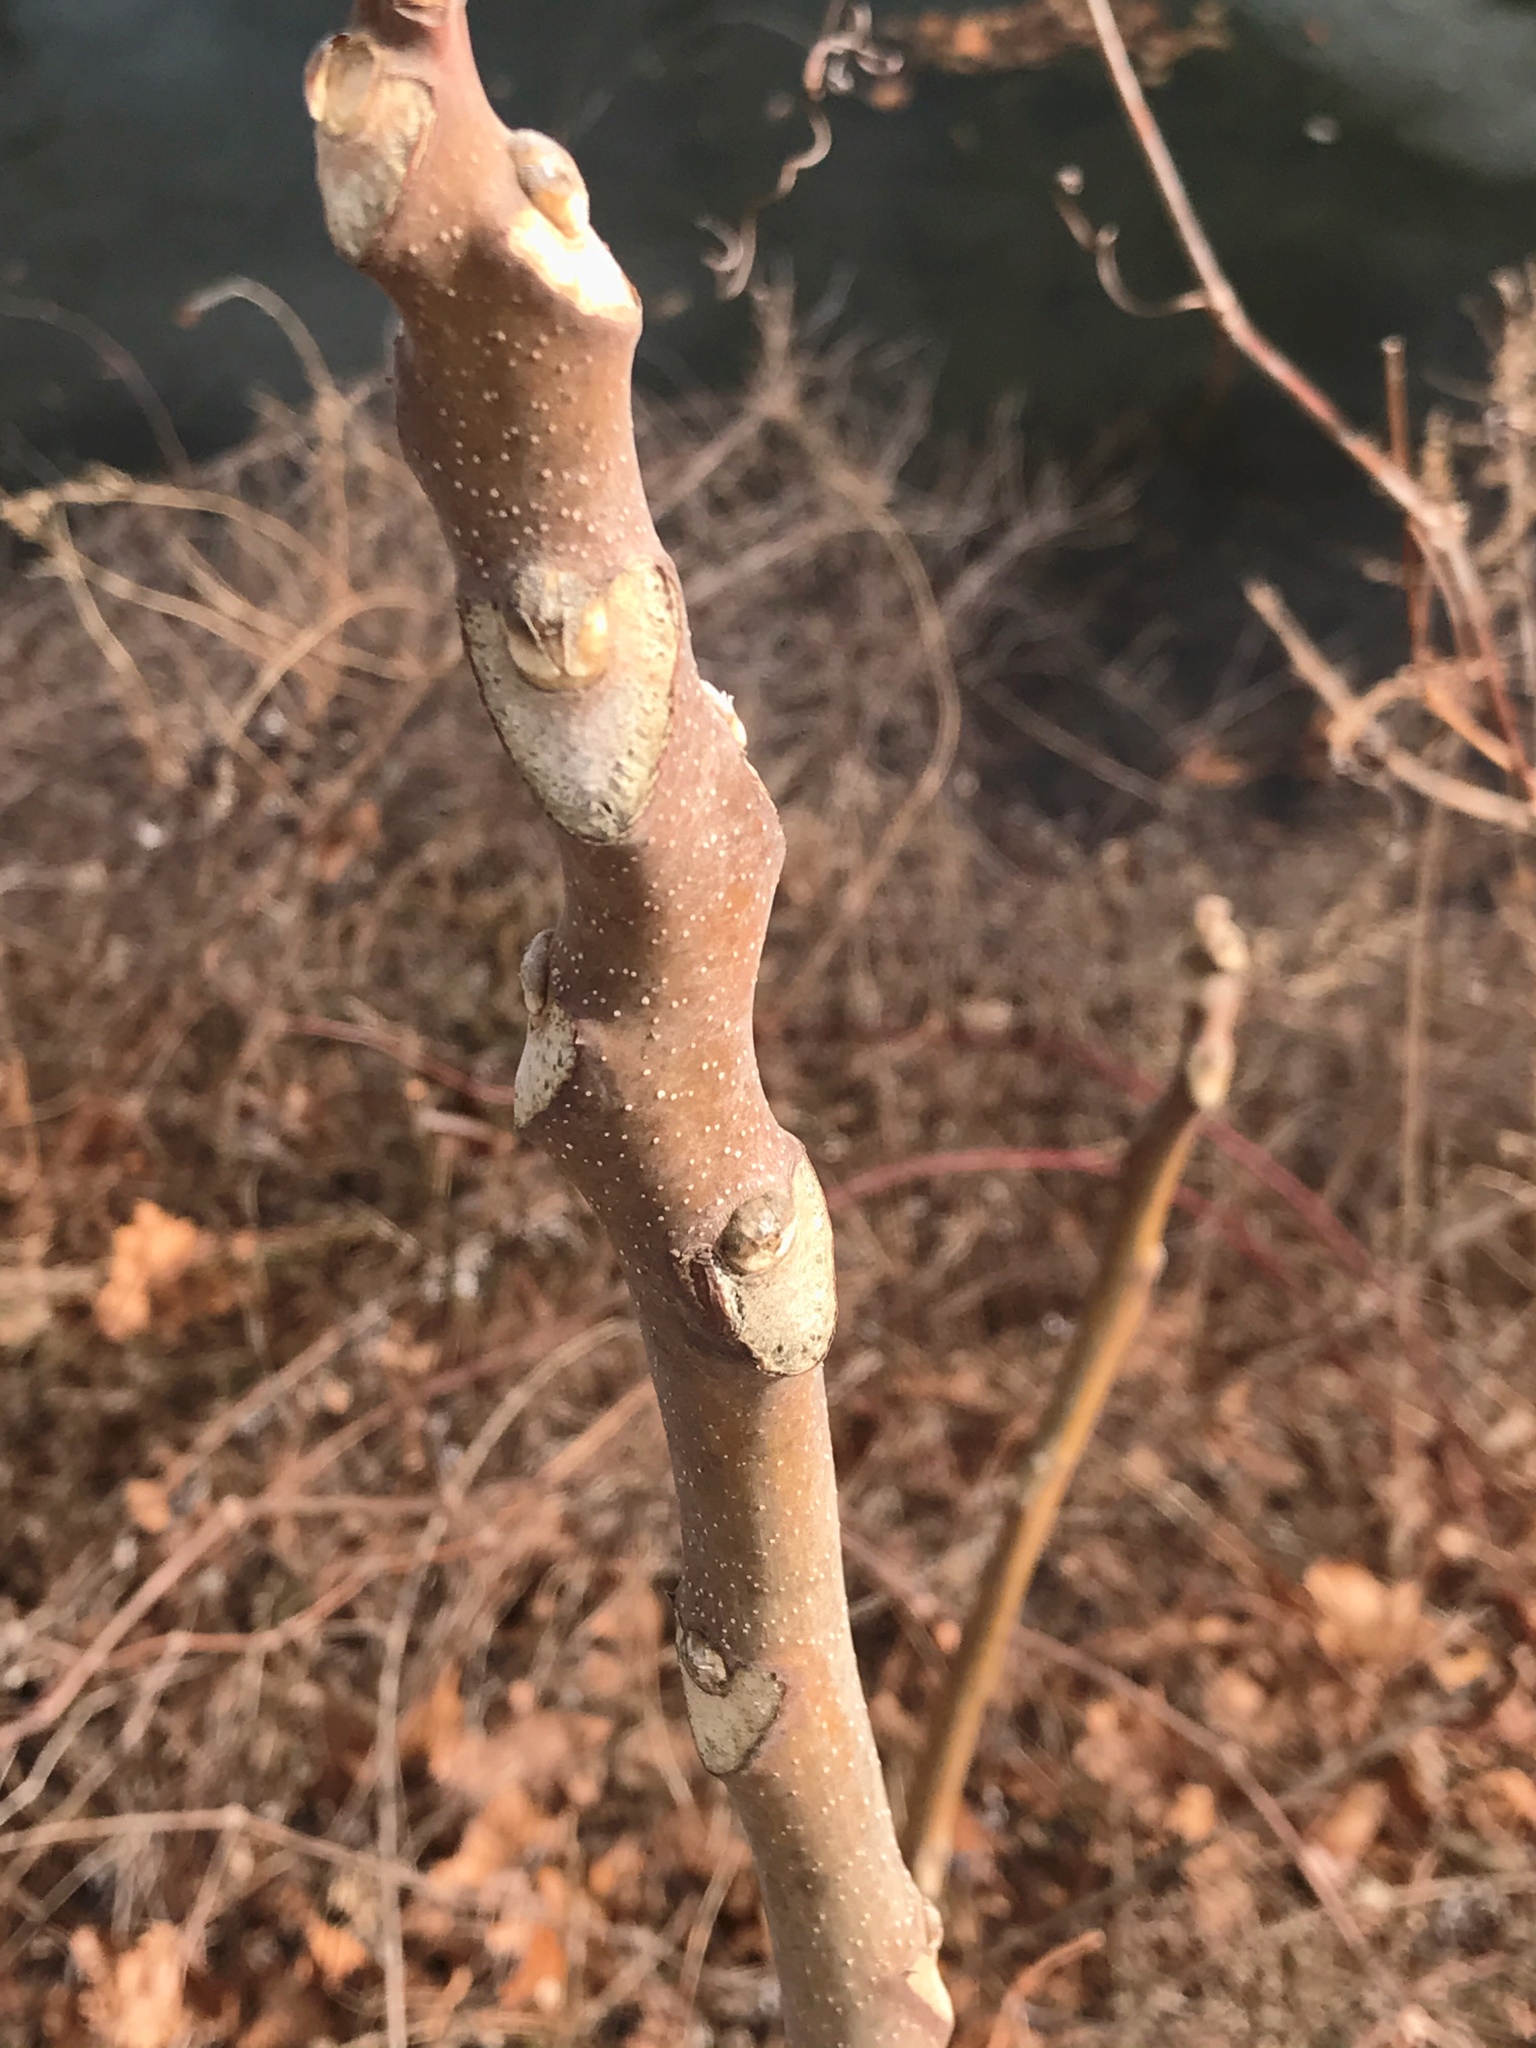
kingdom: Plantae
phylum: Tracheophyta
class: Magnoliopsida
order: Sapindales
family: Simaroubaceae
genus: Ailanthus
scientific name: Ailanthus altissima
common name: Tree-of-heaven
